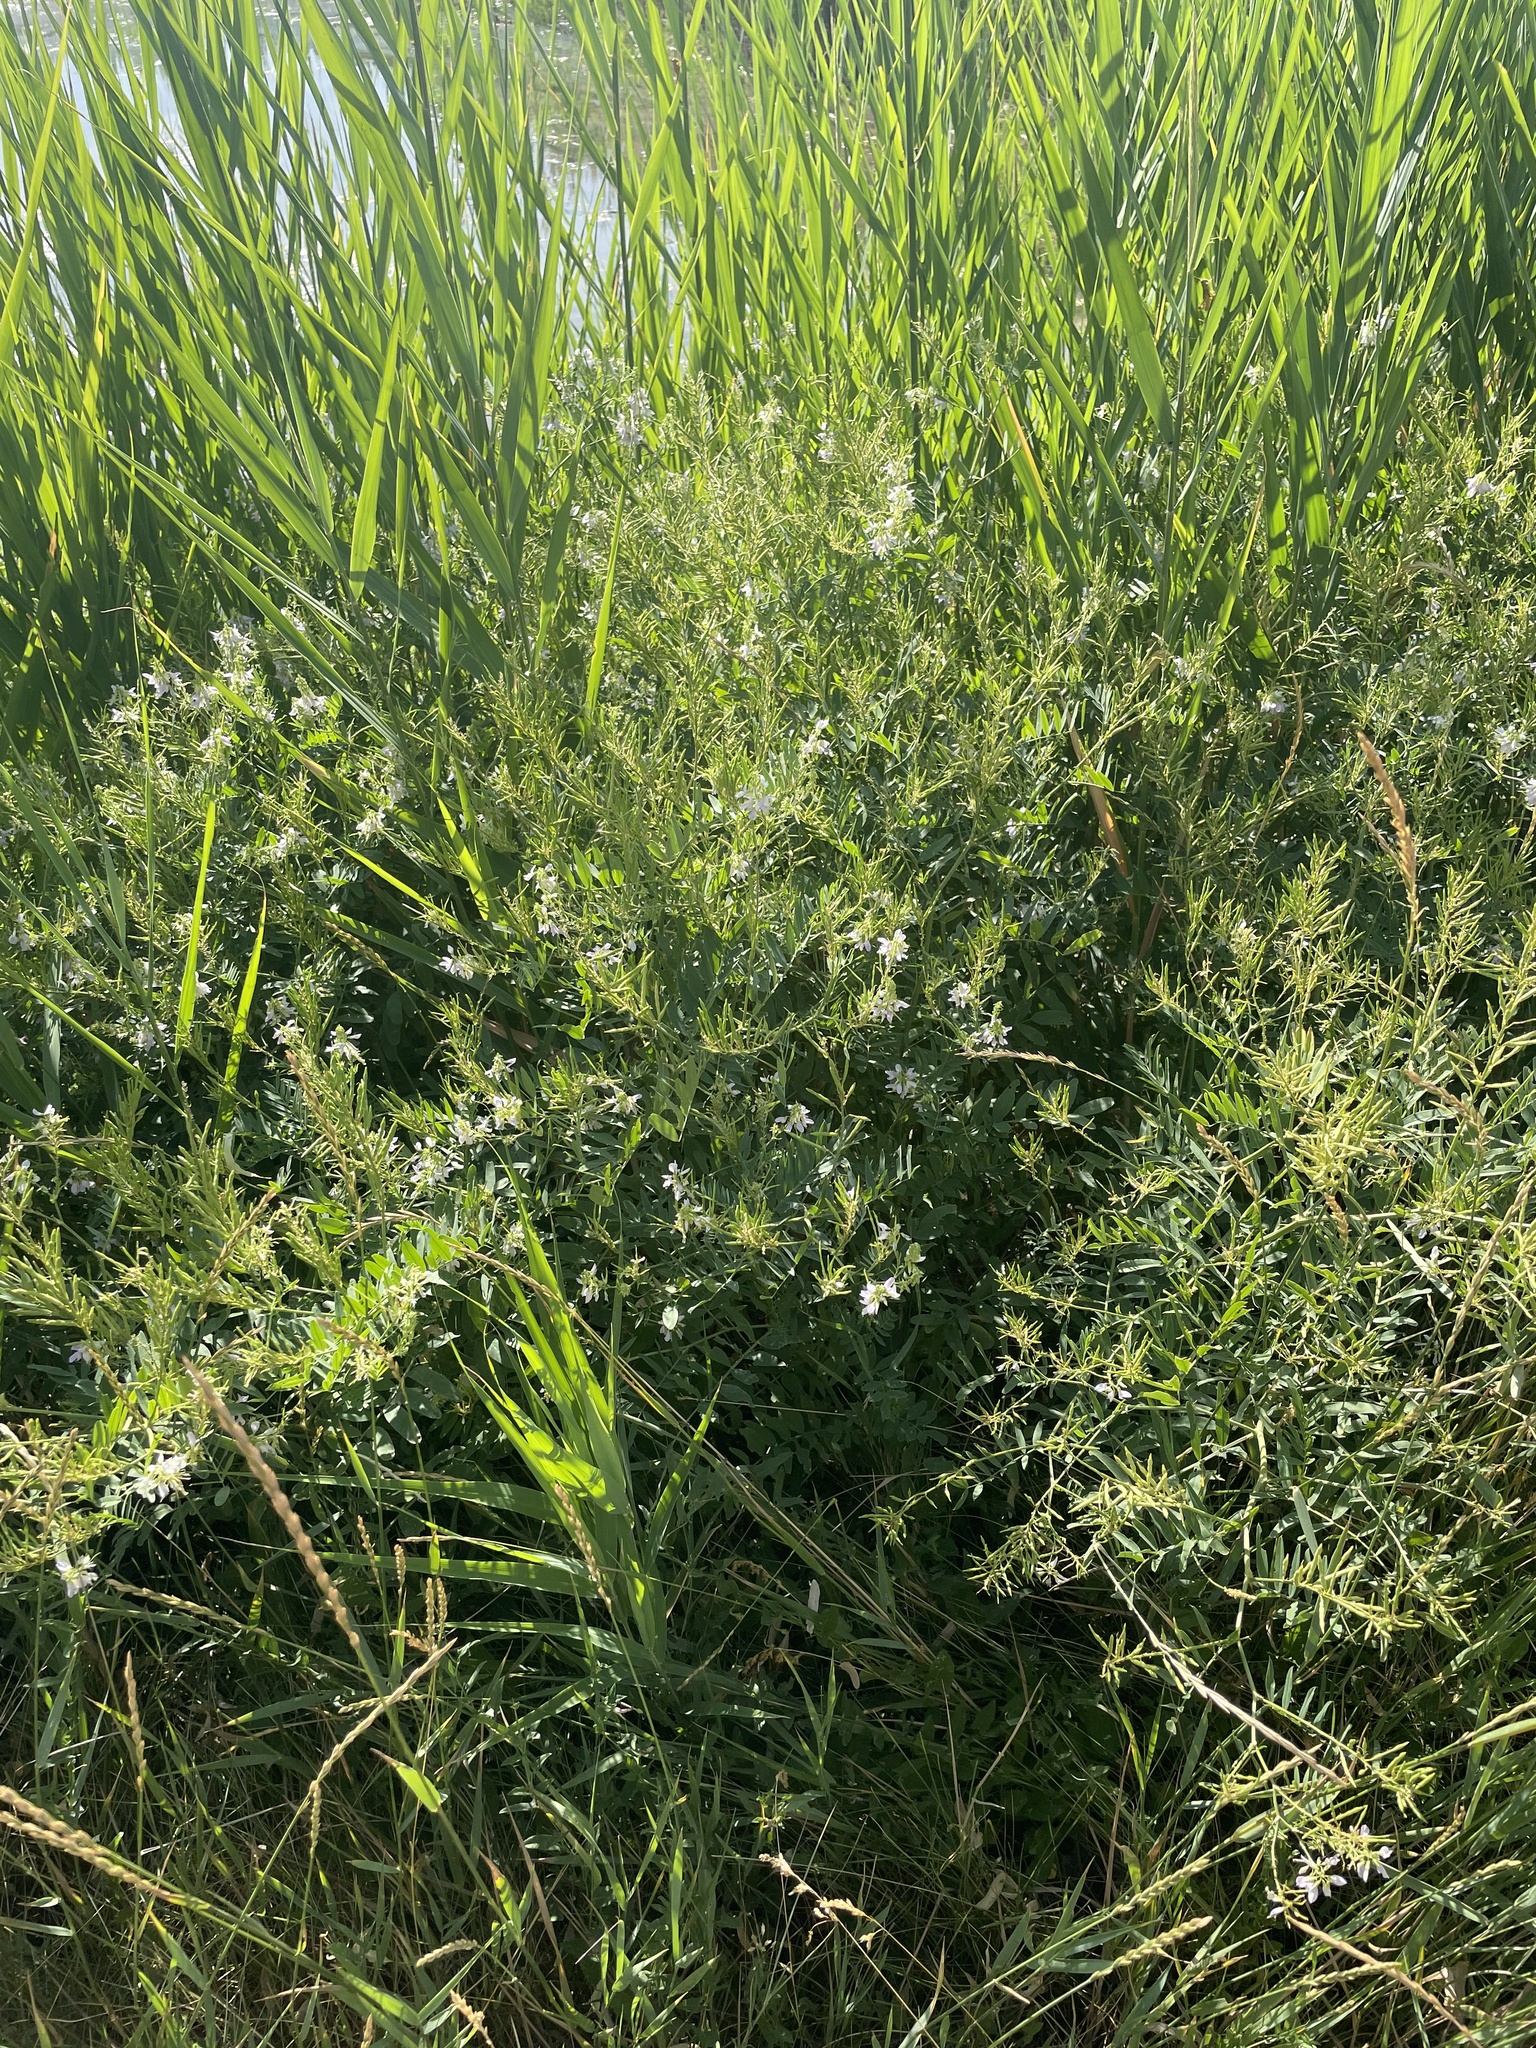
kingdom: Plantae
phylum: Tracheophyta
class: Magnoliopsida
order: Fabales
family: Fabaceae
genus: Galega
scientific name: Galega officinalis
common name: Goat's-rue
